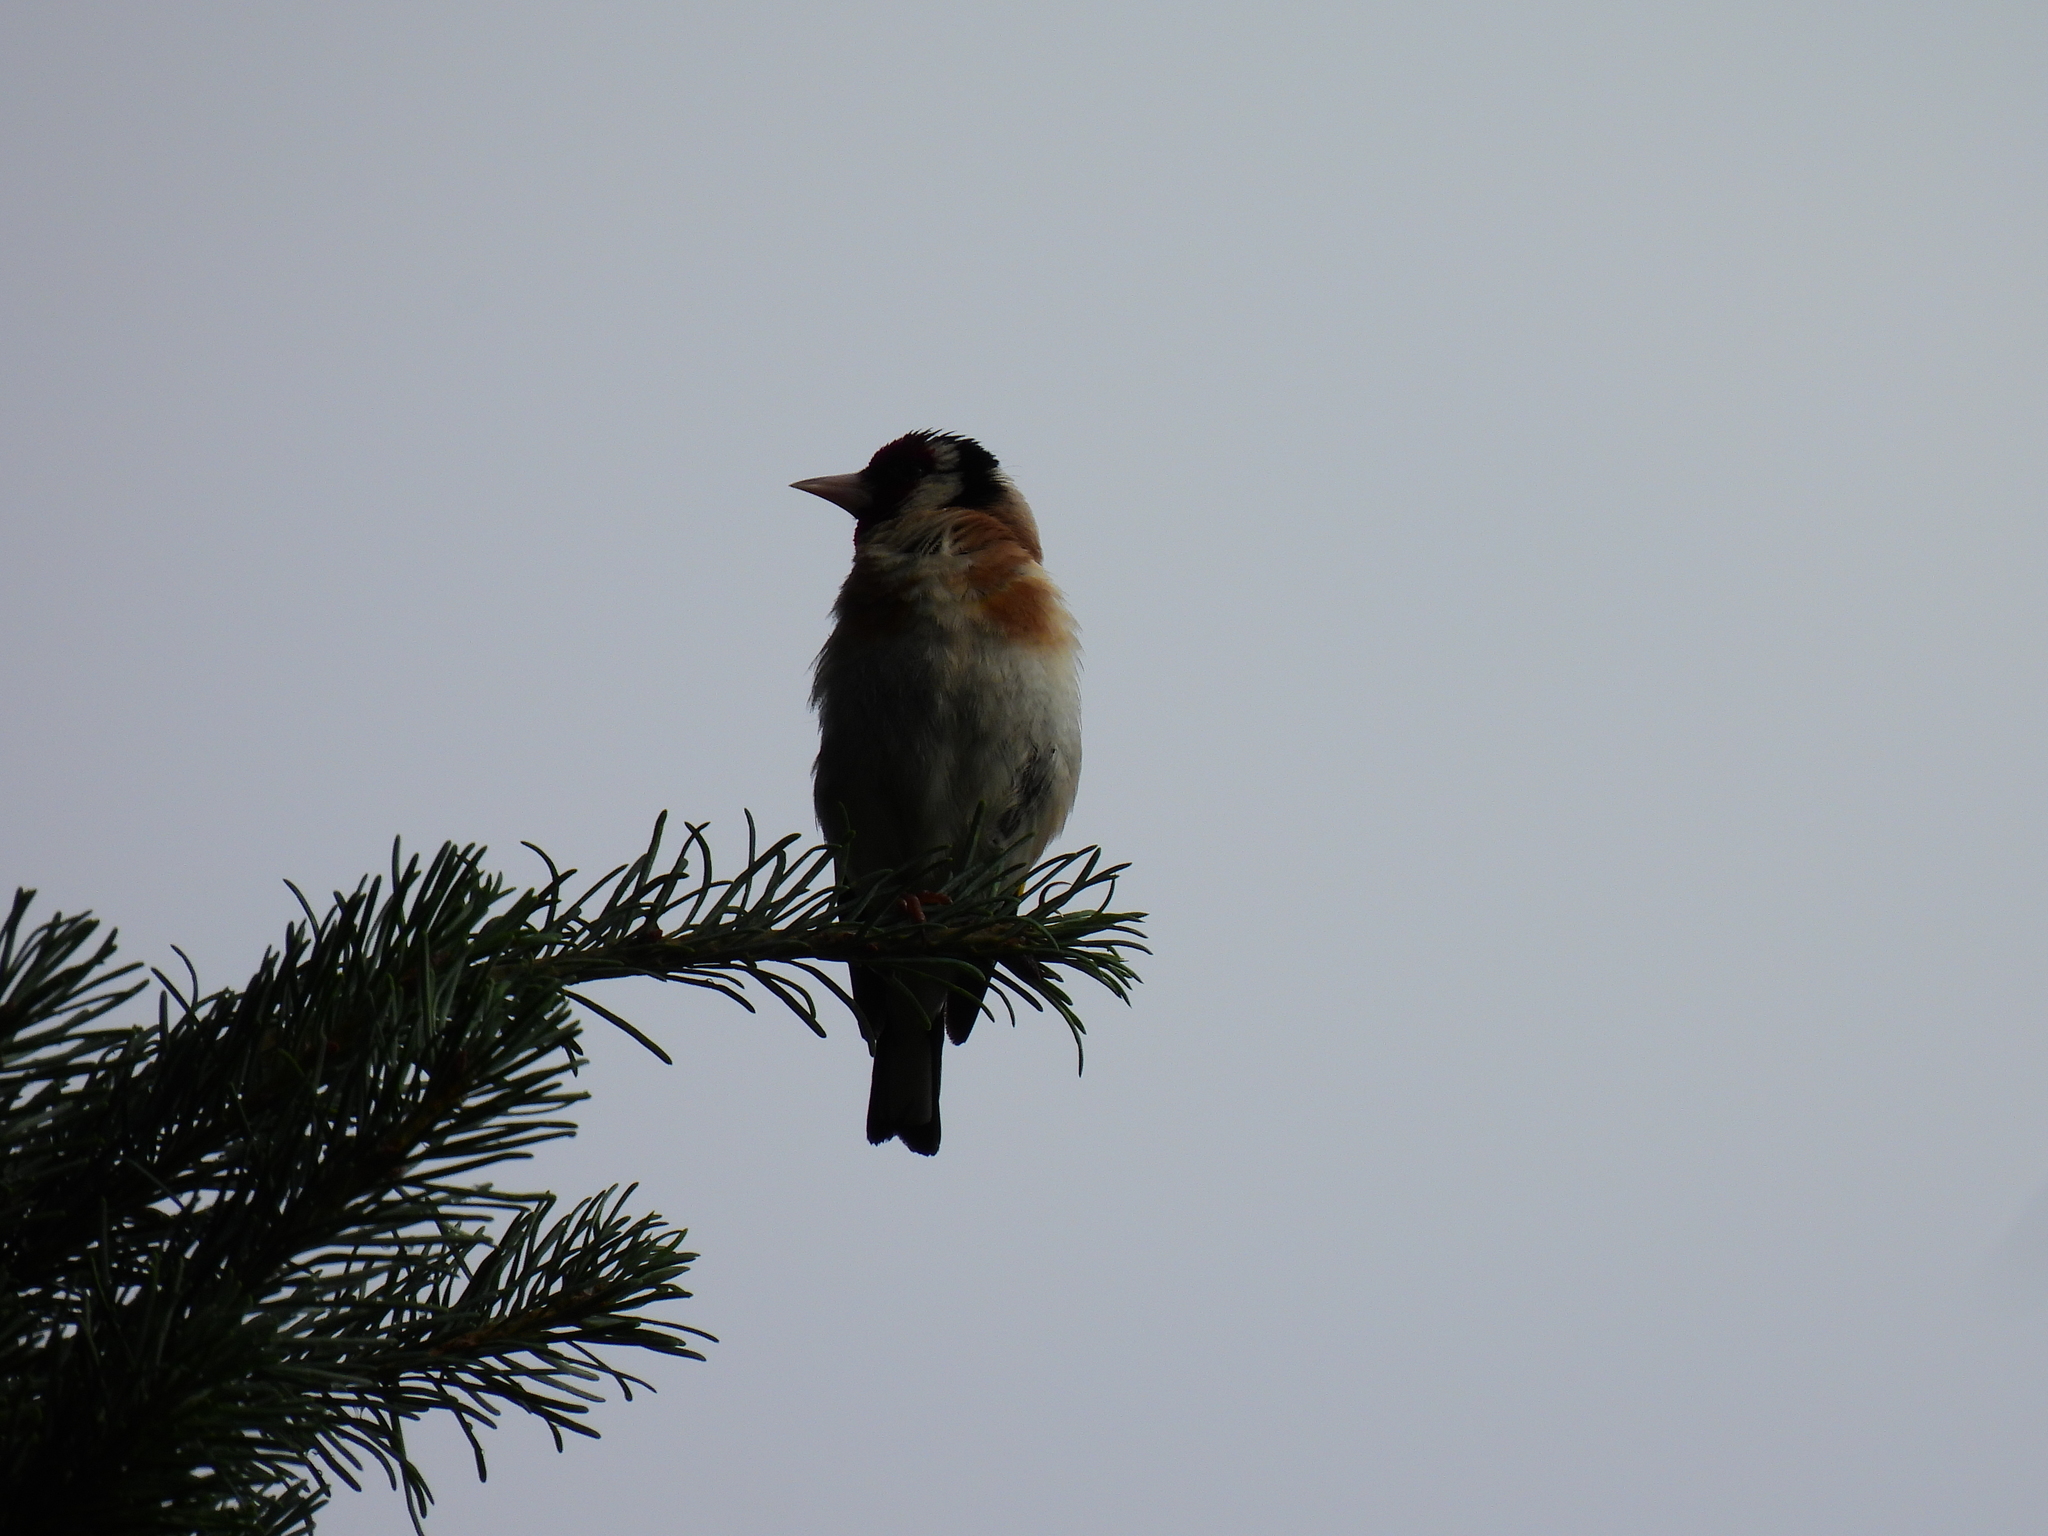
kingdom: Animalia
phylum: Chordata
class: Aves
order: Passeriformes
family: Fringillidae
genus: Carduelis
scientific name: Carduelis carduelis
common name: European goldfinch
